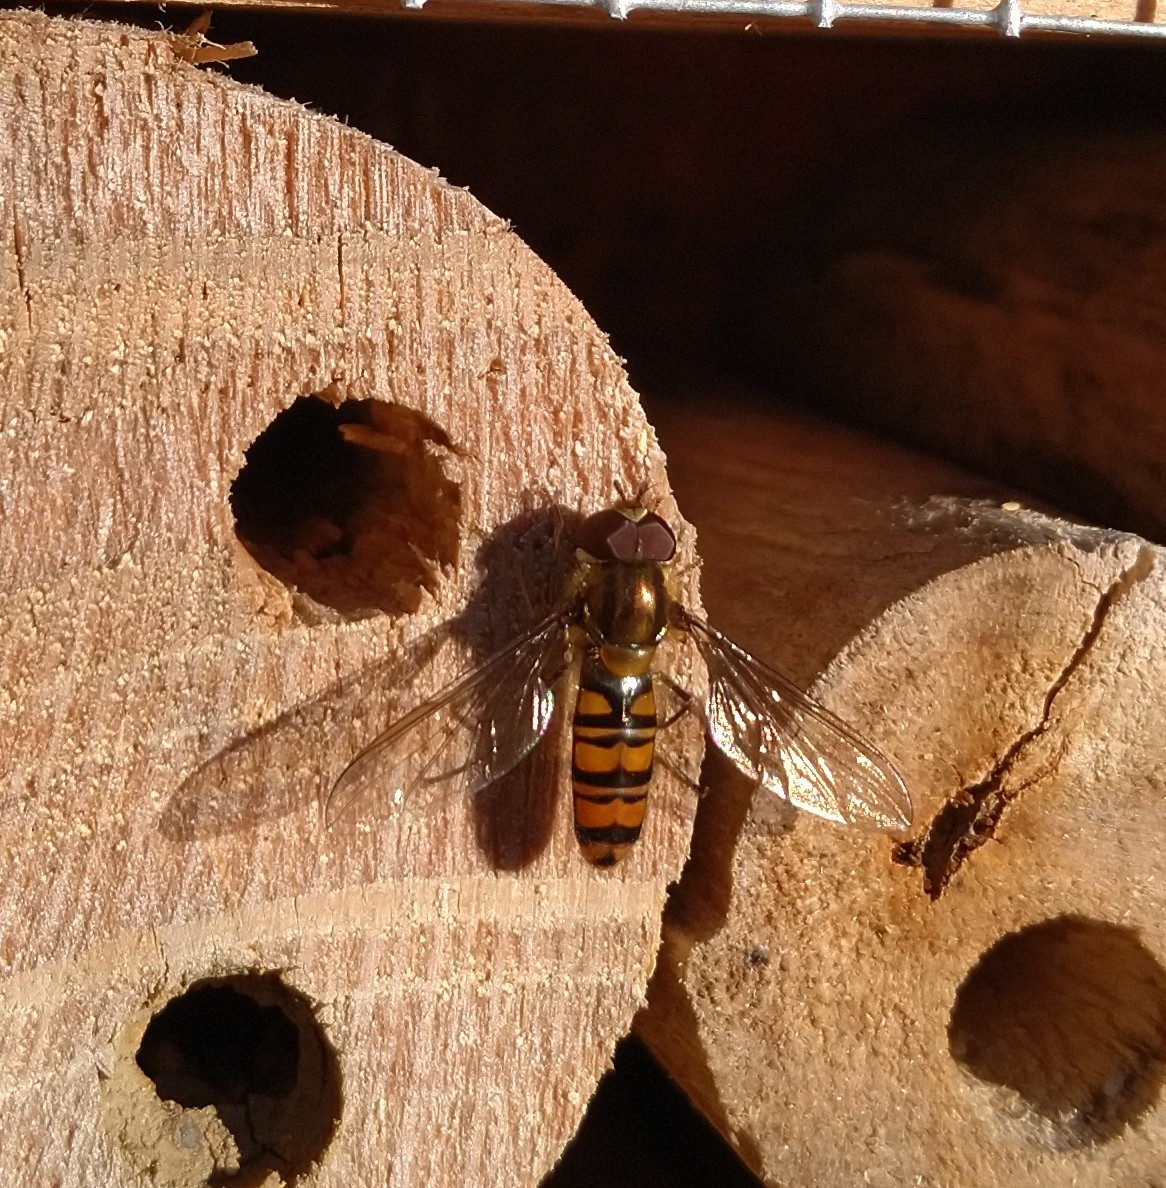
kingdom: Animalia
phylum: Arthropoda
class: Insecta
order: Diptera
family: Syrphidae
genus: Episyrphus
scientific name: Episyrphus balteatus
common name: Marmalade hoverfly
